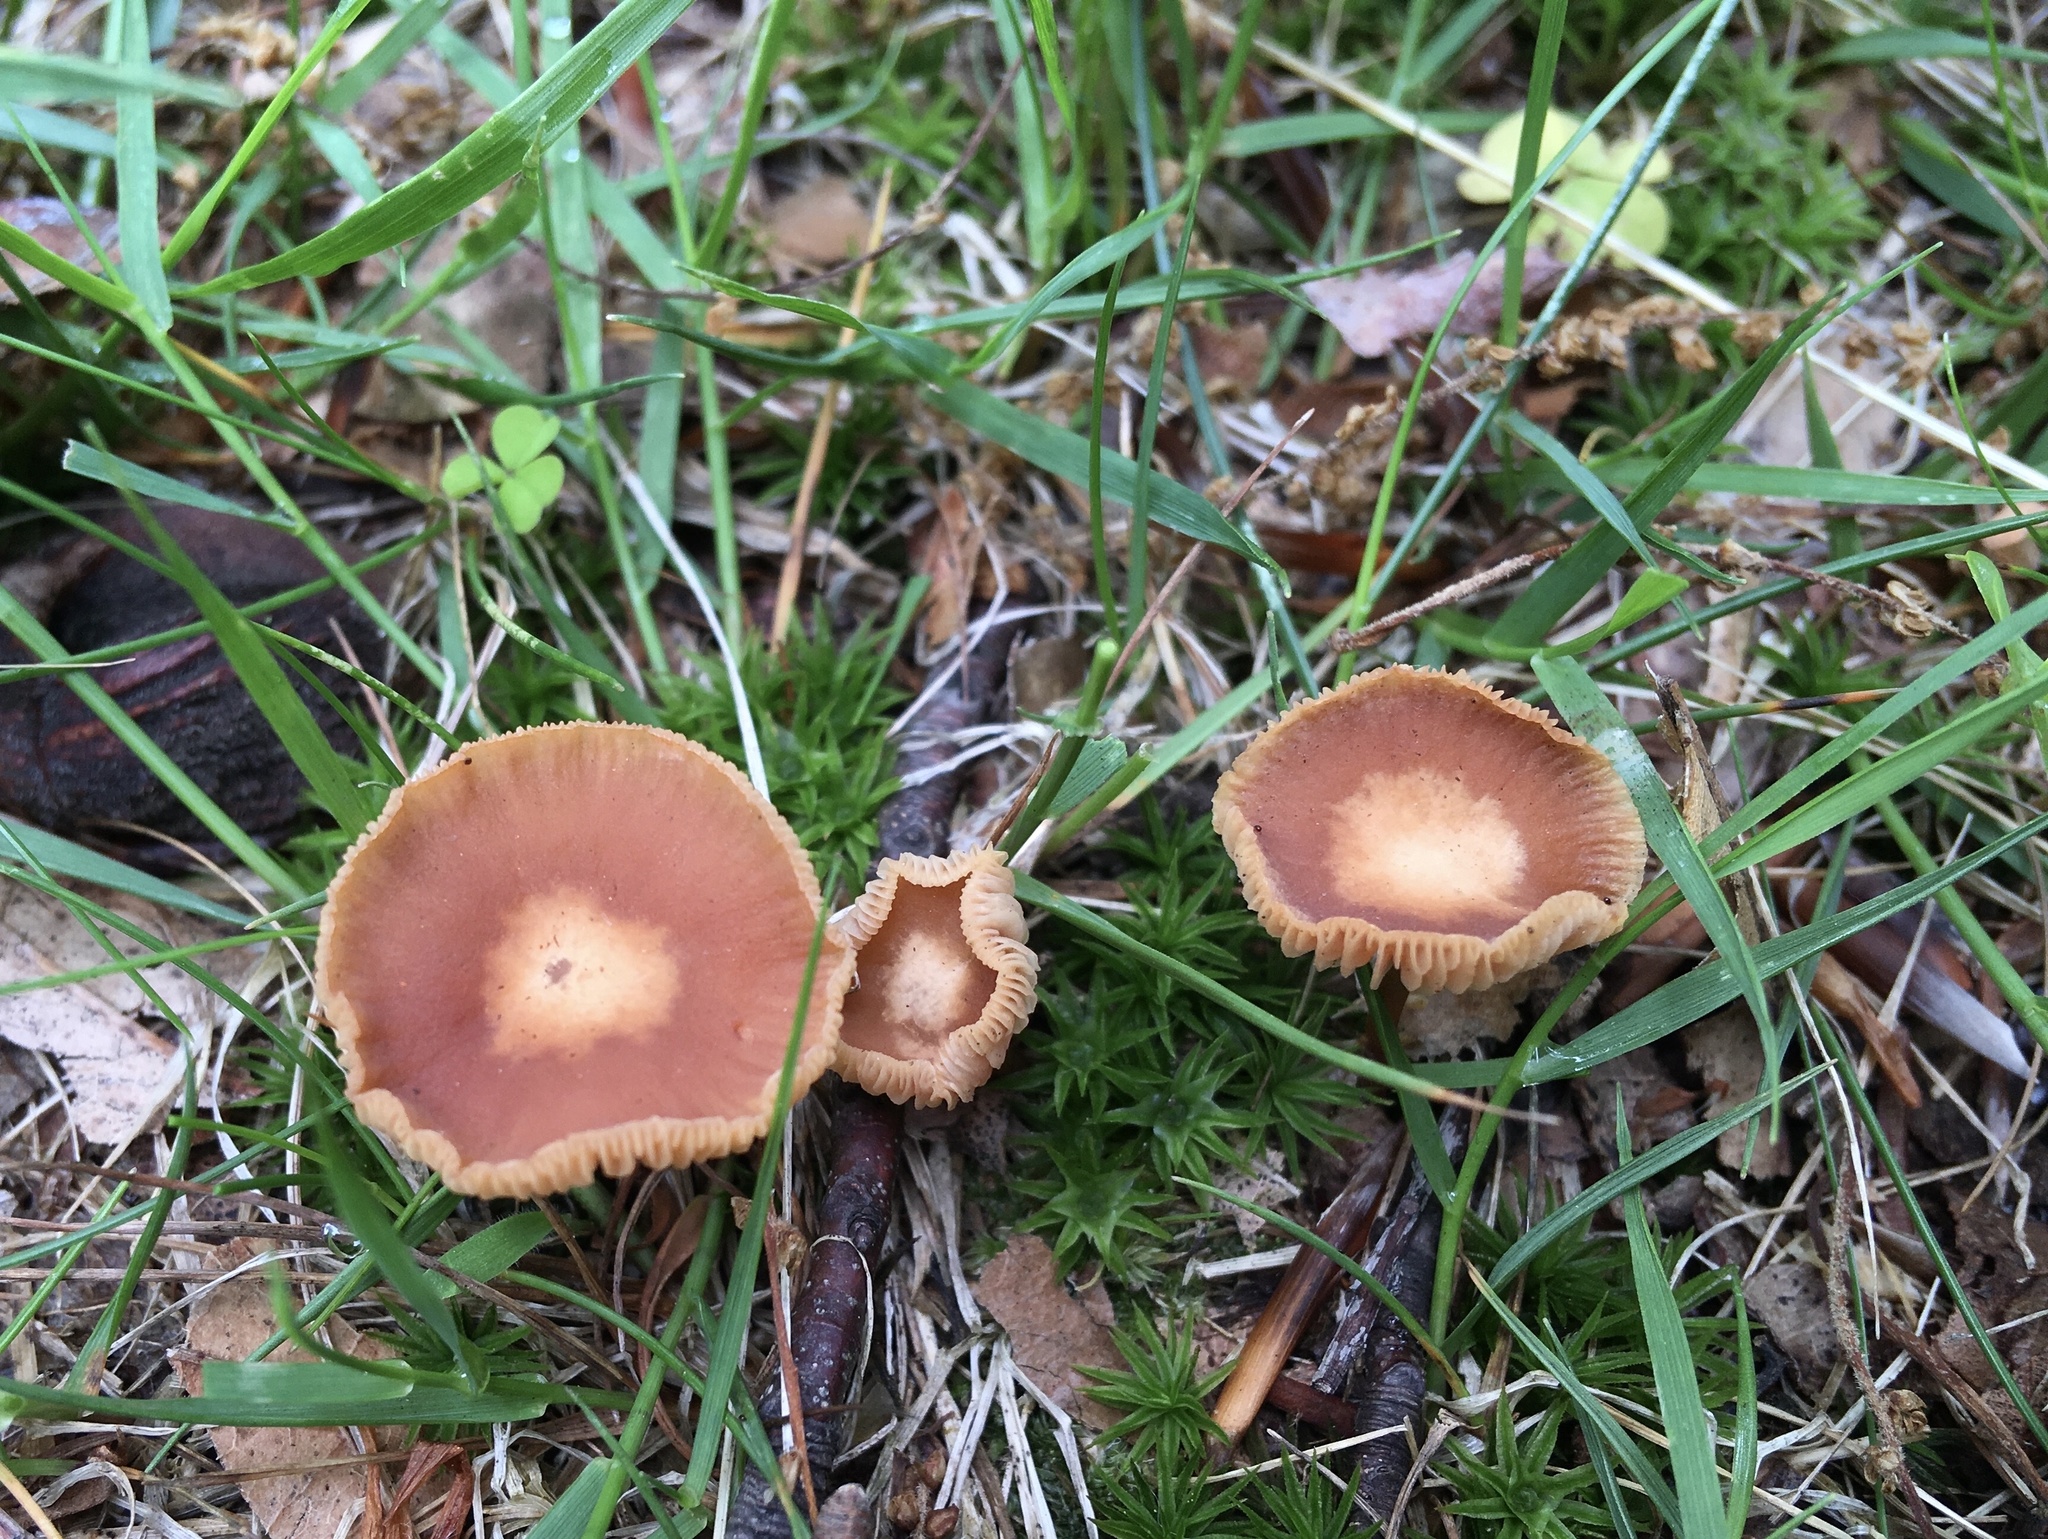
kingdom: Fungi
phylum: Basidiomycota
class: Agaricomycetes
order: Agaricales
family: Tubariaceae
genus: Tubaria
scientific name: Tubaria furfuracea
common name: Scurfy twiglet
